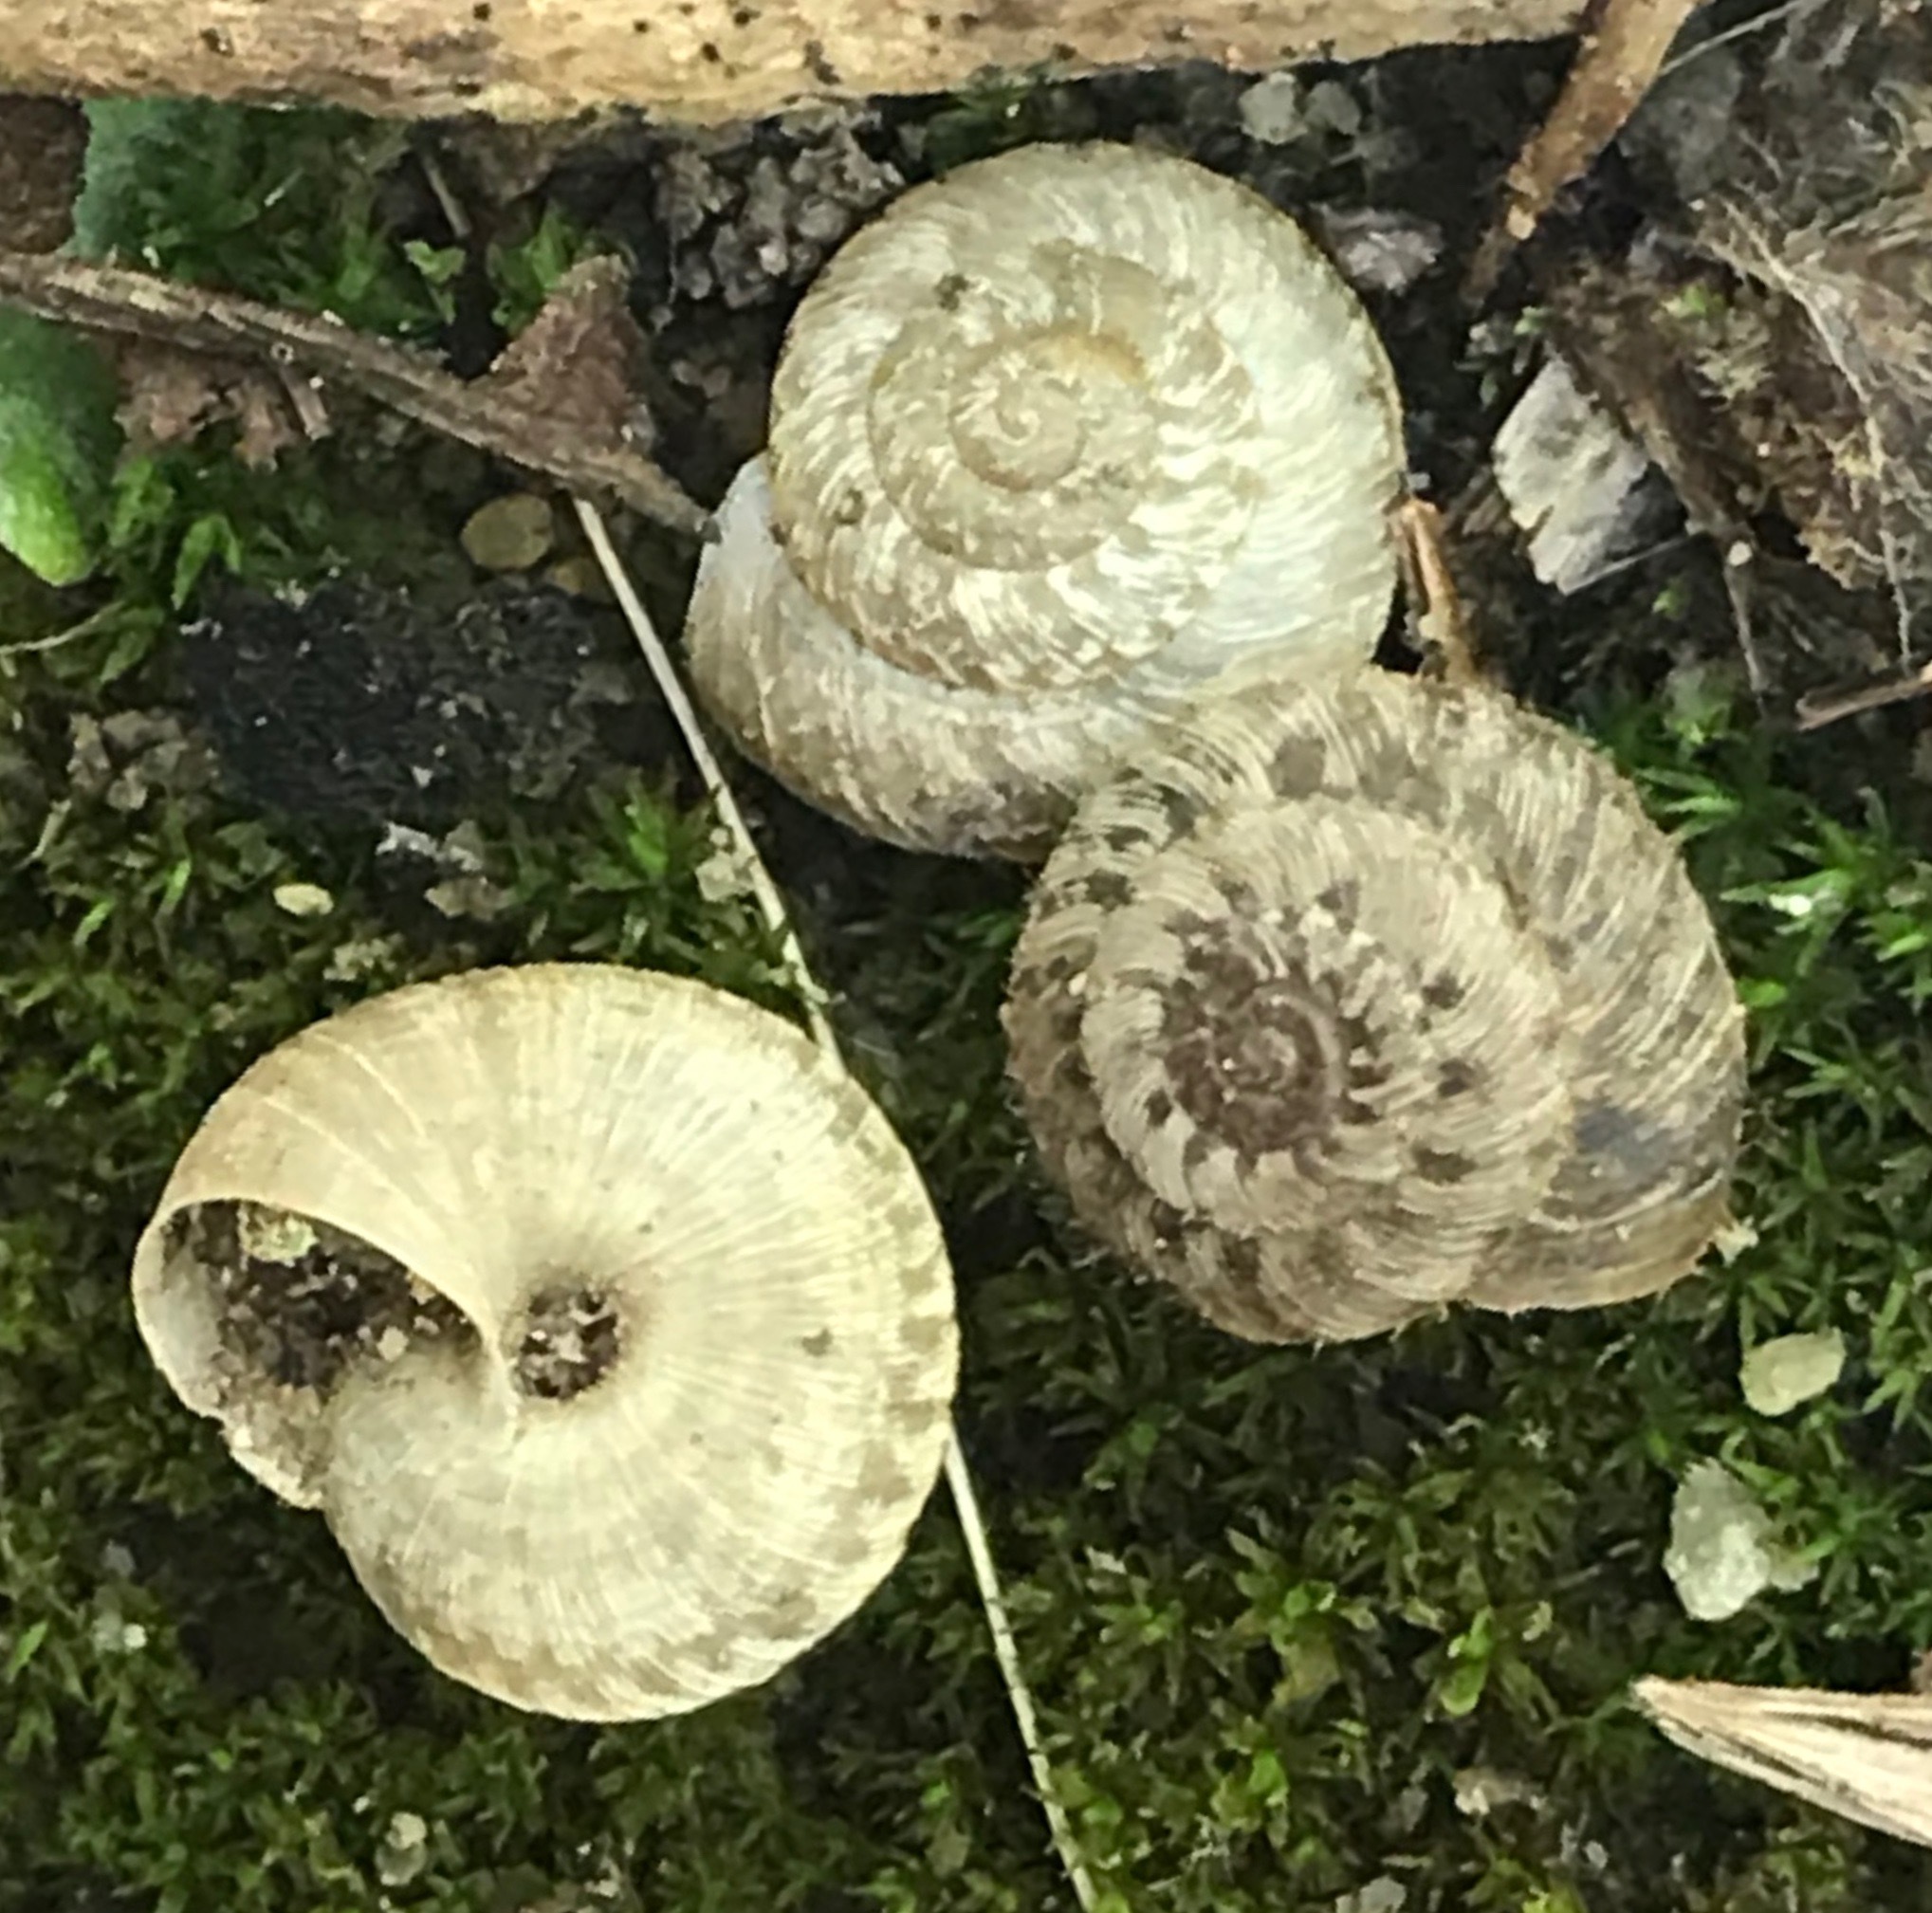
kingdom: Animalia
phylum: Mollusca
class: Gastropoda
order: Stylommatophora
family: Geomitridae
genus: Xerotricha
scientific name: Xerotricha conspurcata
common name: Snail
